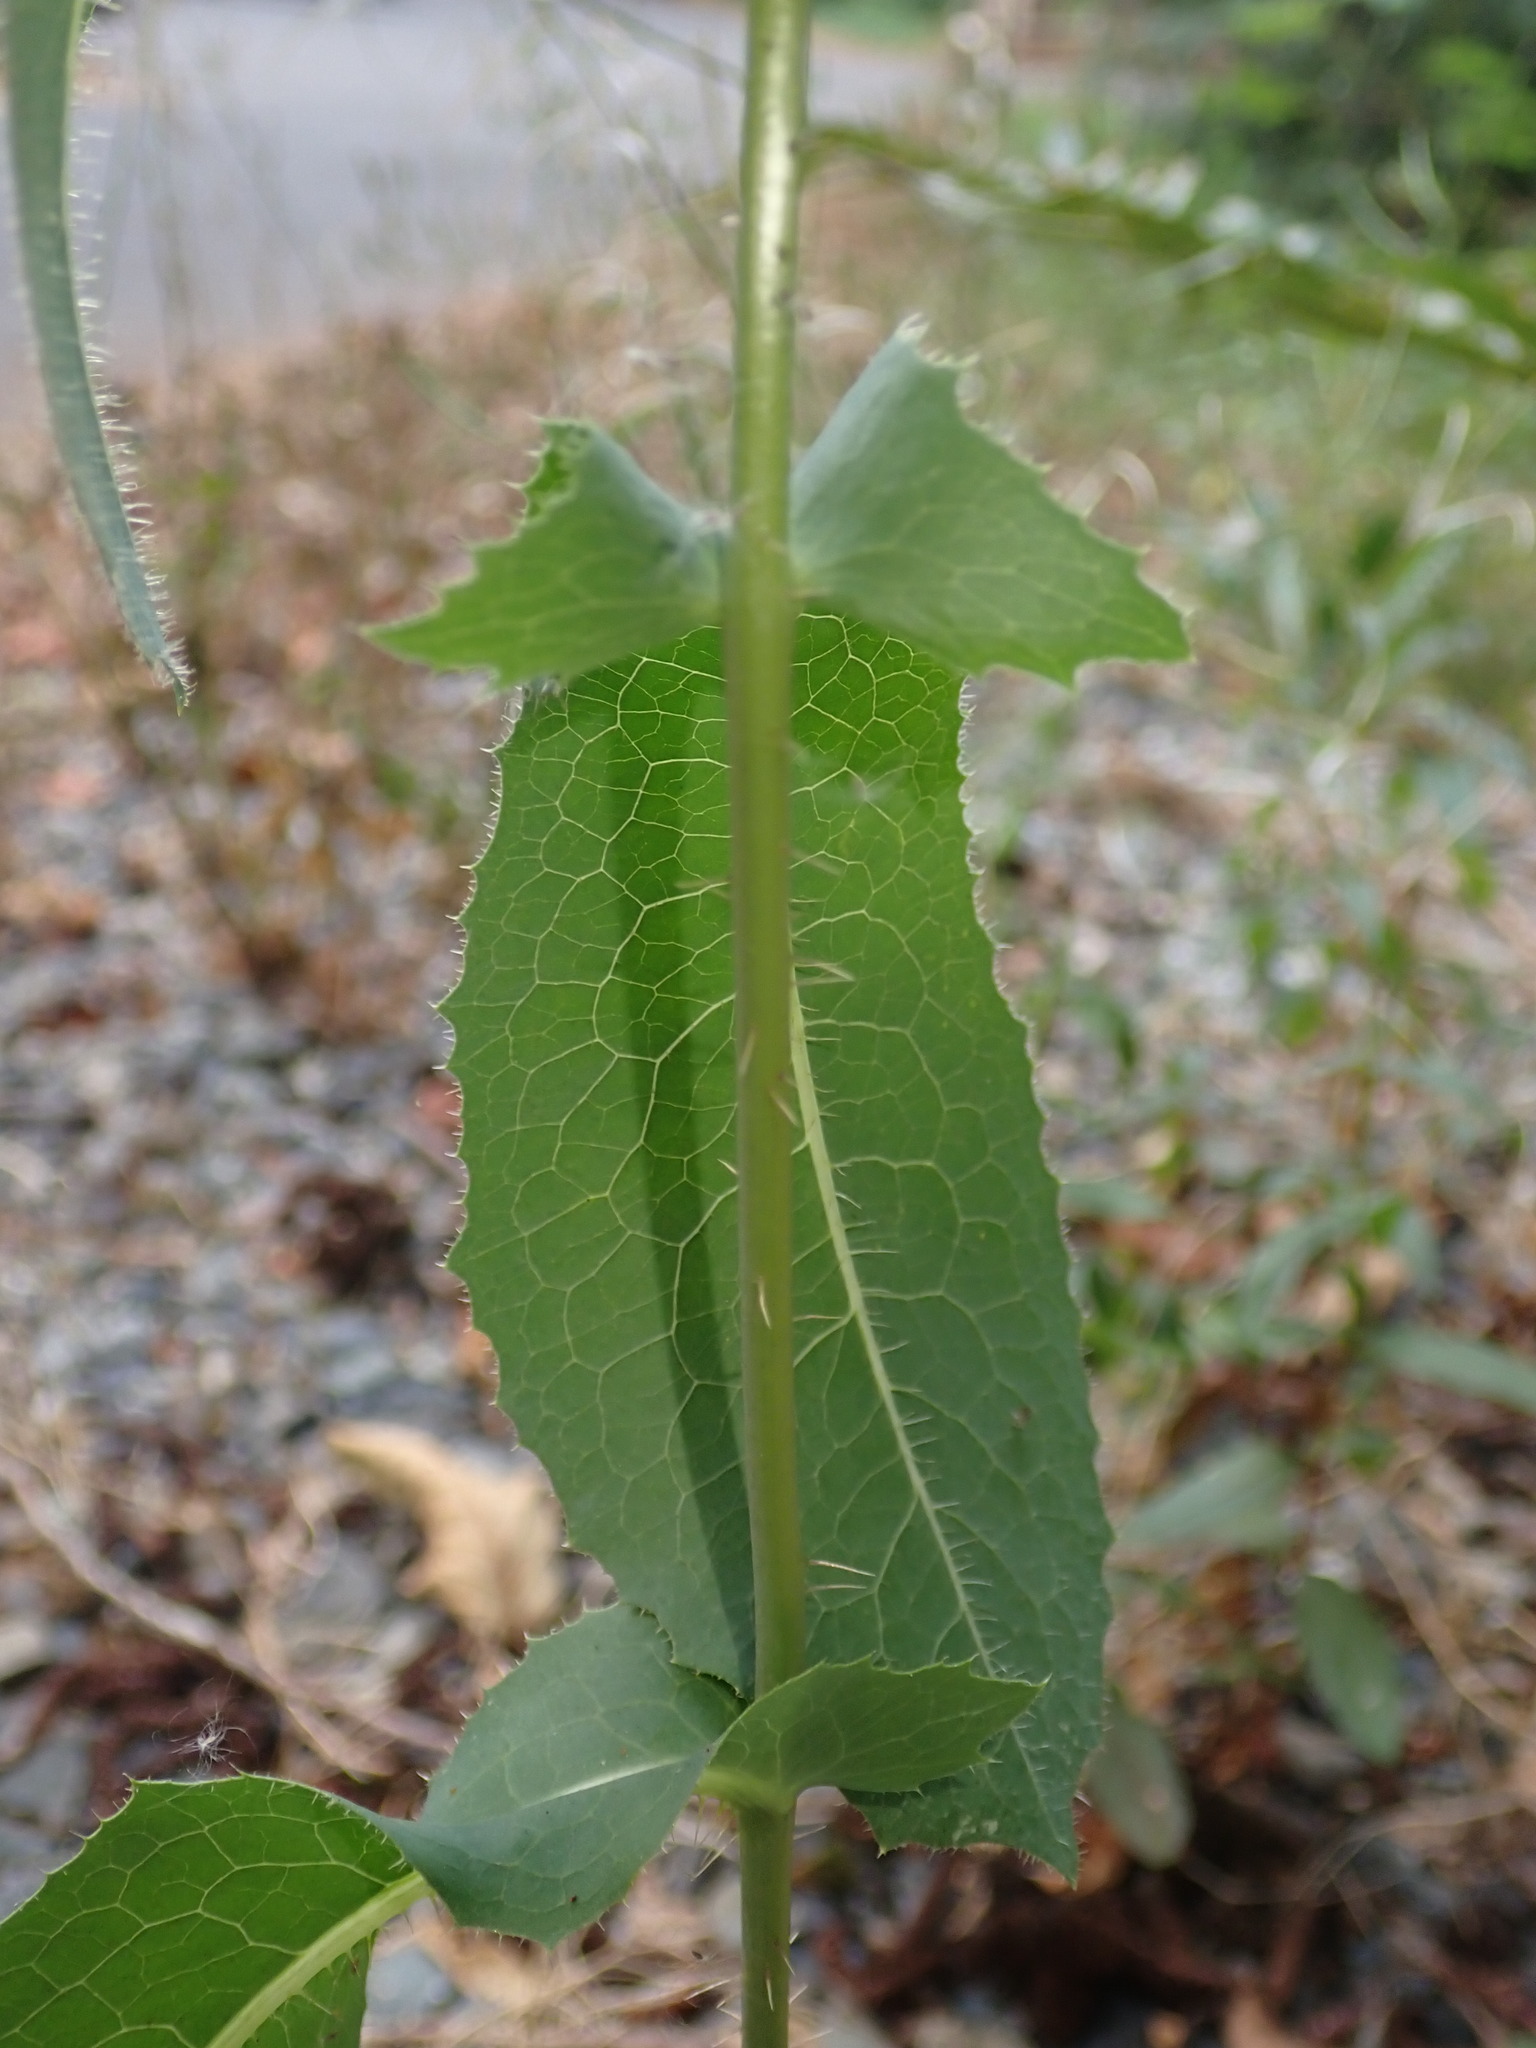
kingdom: Plantae
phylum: Tracheophyta
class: Magnoliopsida
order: Asterales
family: Asteraceae
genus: Lactuca
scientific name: Lactuca serriola
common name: Prickly lettuce
